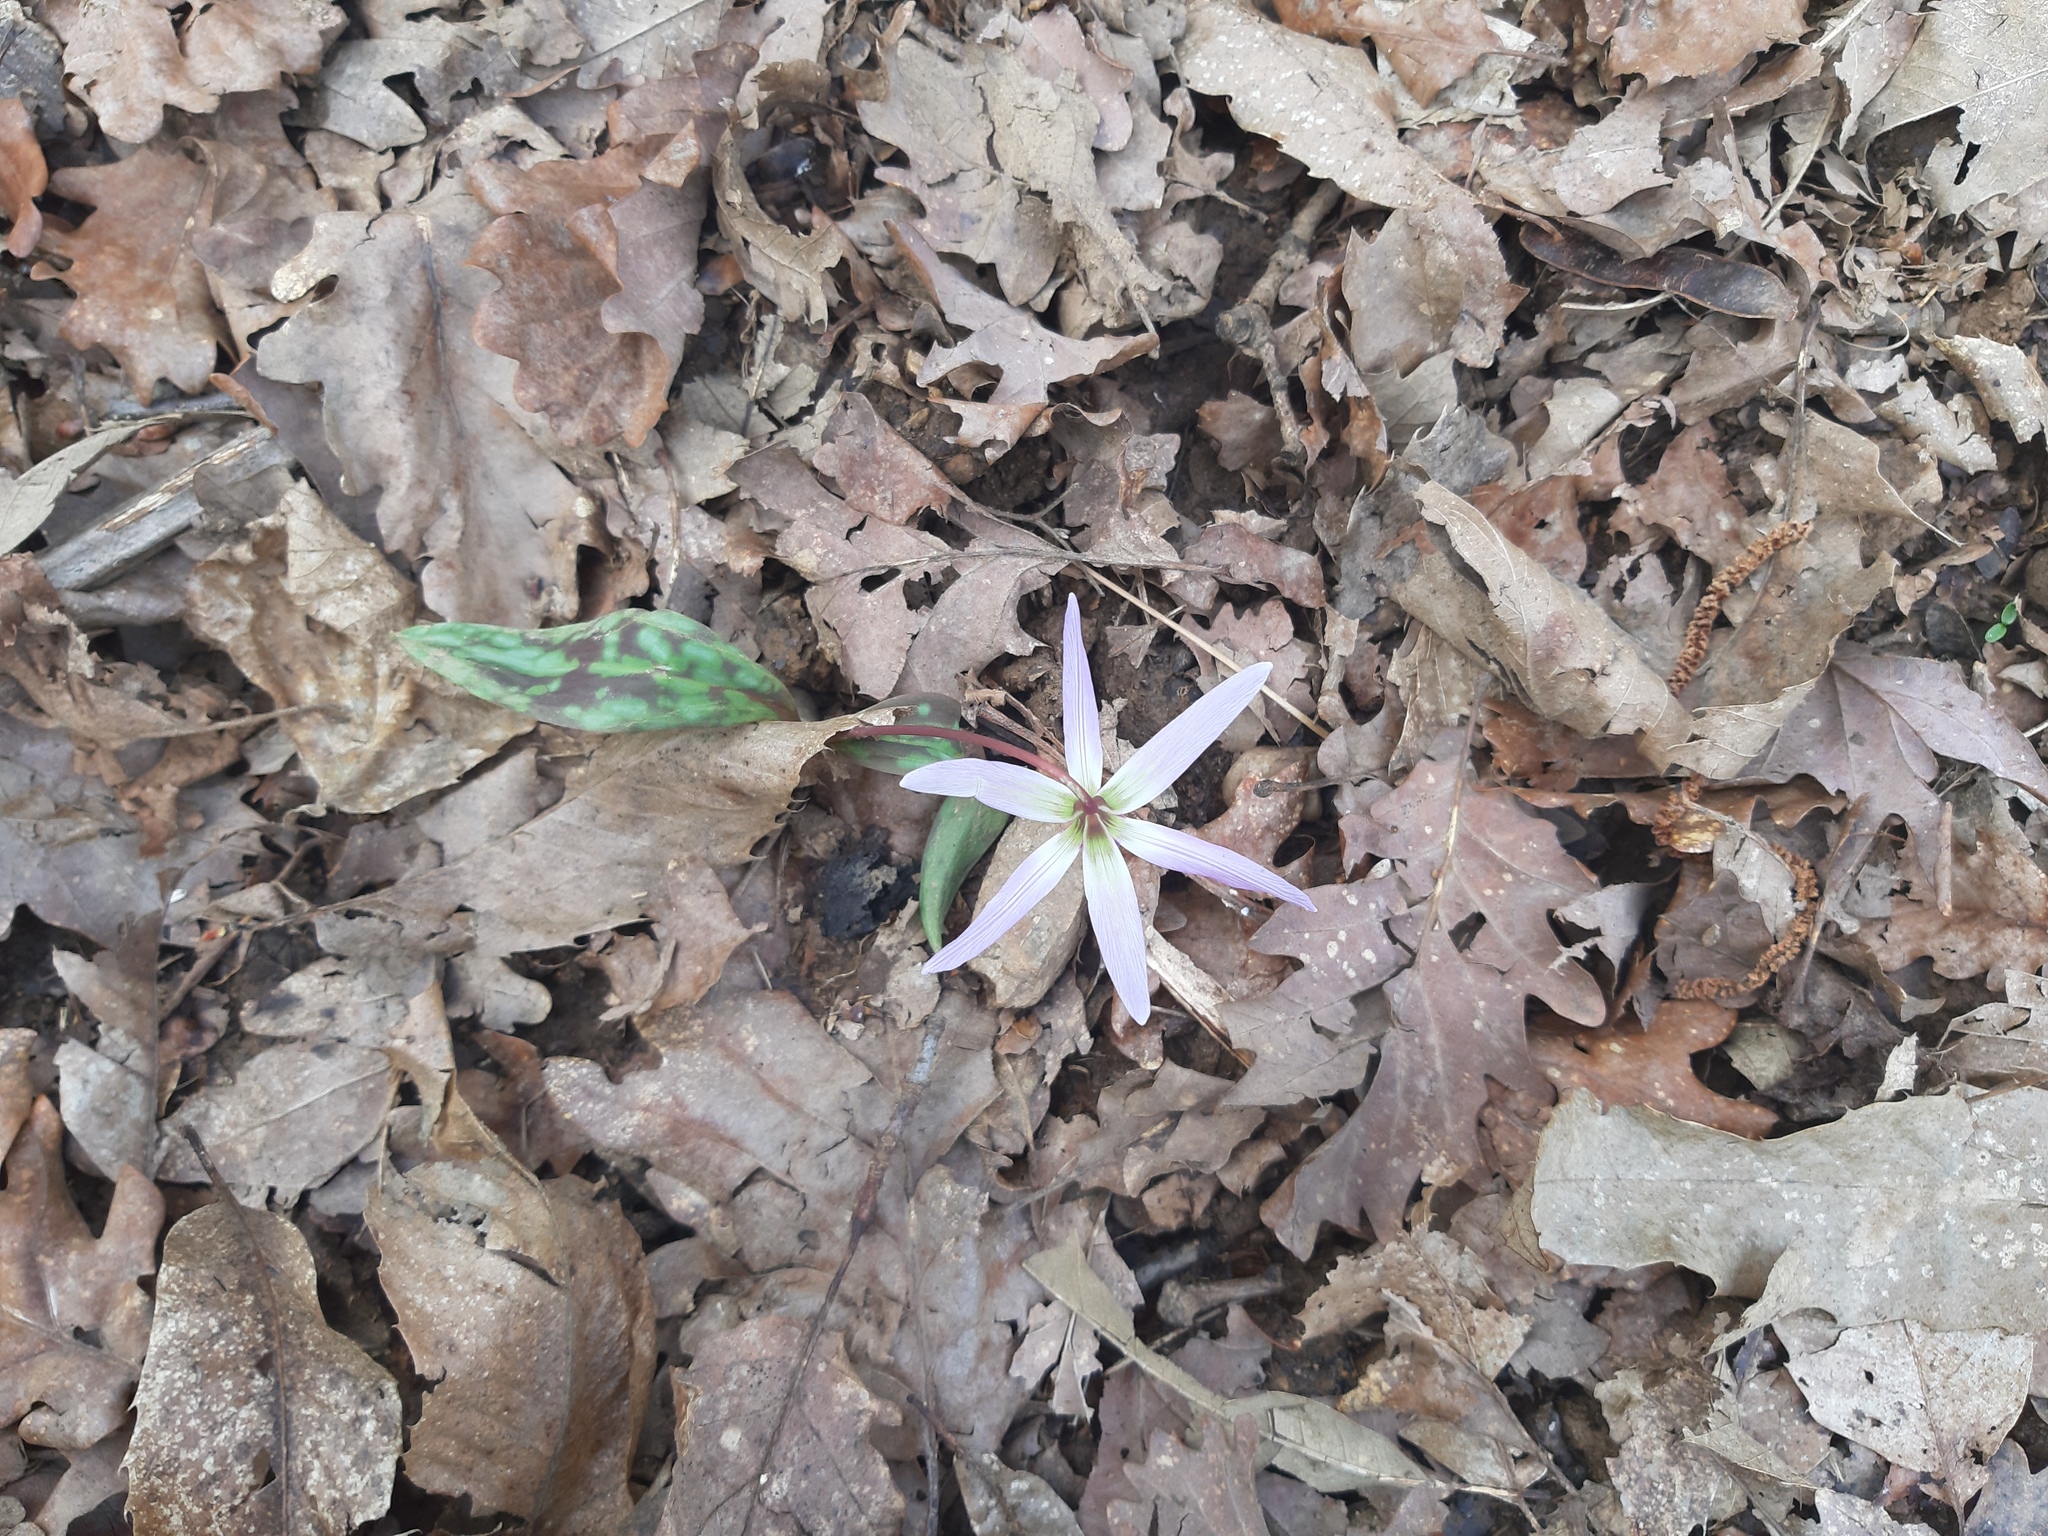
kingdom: Plantae
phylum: Tracheophyta
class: Liliopsida
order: Liliales
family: Liliaceae
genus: Erythronium
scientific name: Erythronium dens-canis
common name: Dog's-tooth-violet
